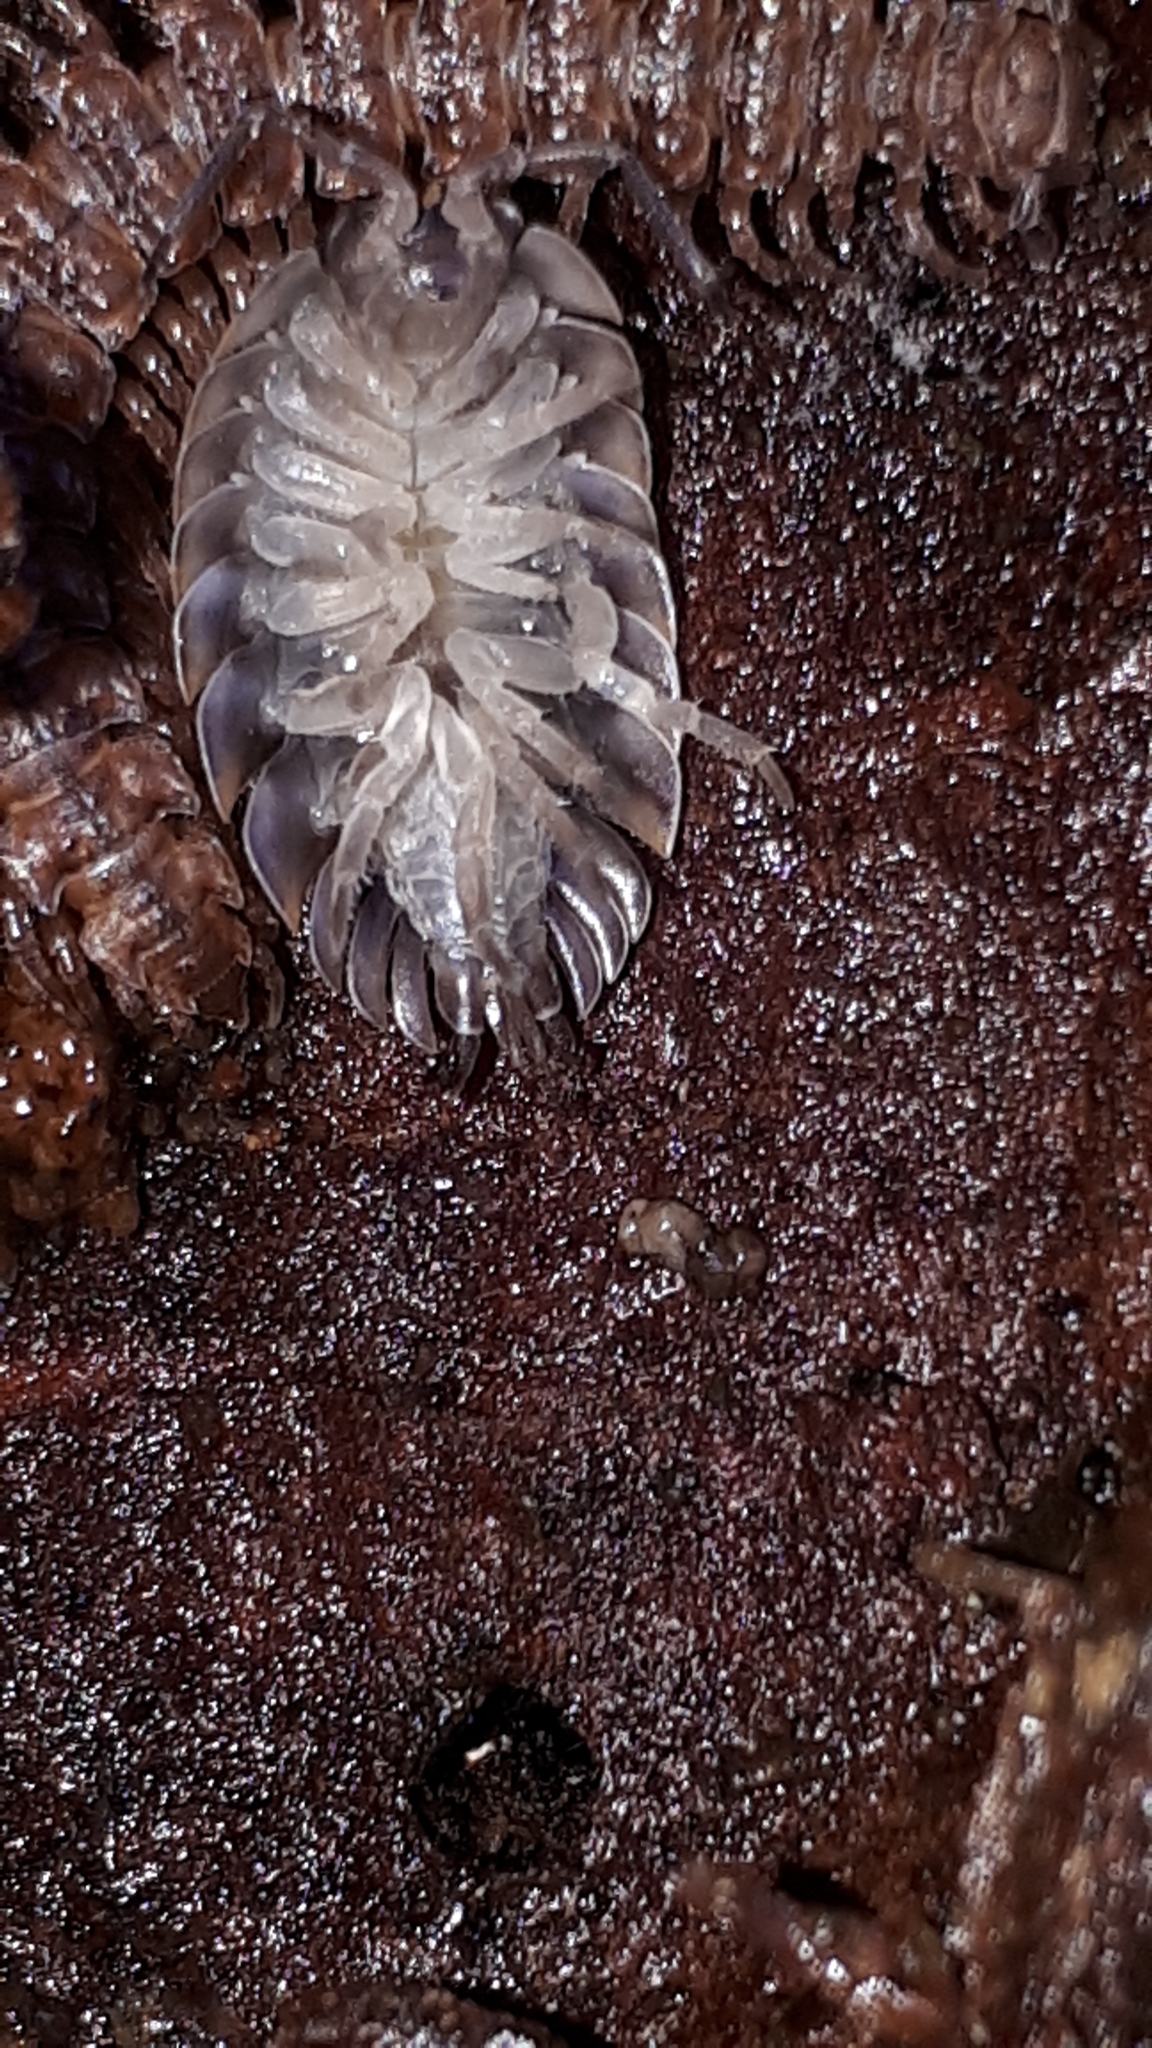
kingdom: Animalia
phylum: Arthropoda
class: Malacostraca
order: Isopoda
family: Oniscidae
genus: Oniscus
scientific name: Oniscus asellus
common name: Common shiny woodlouse
